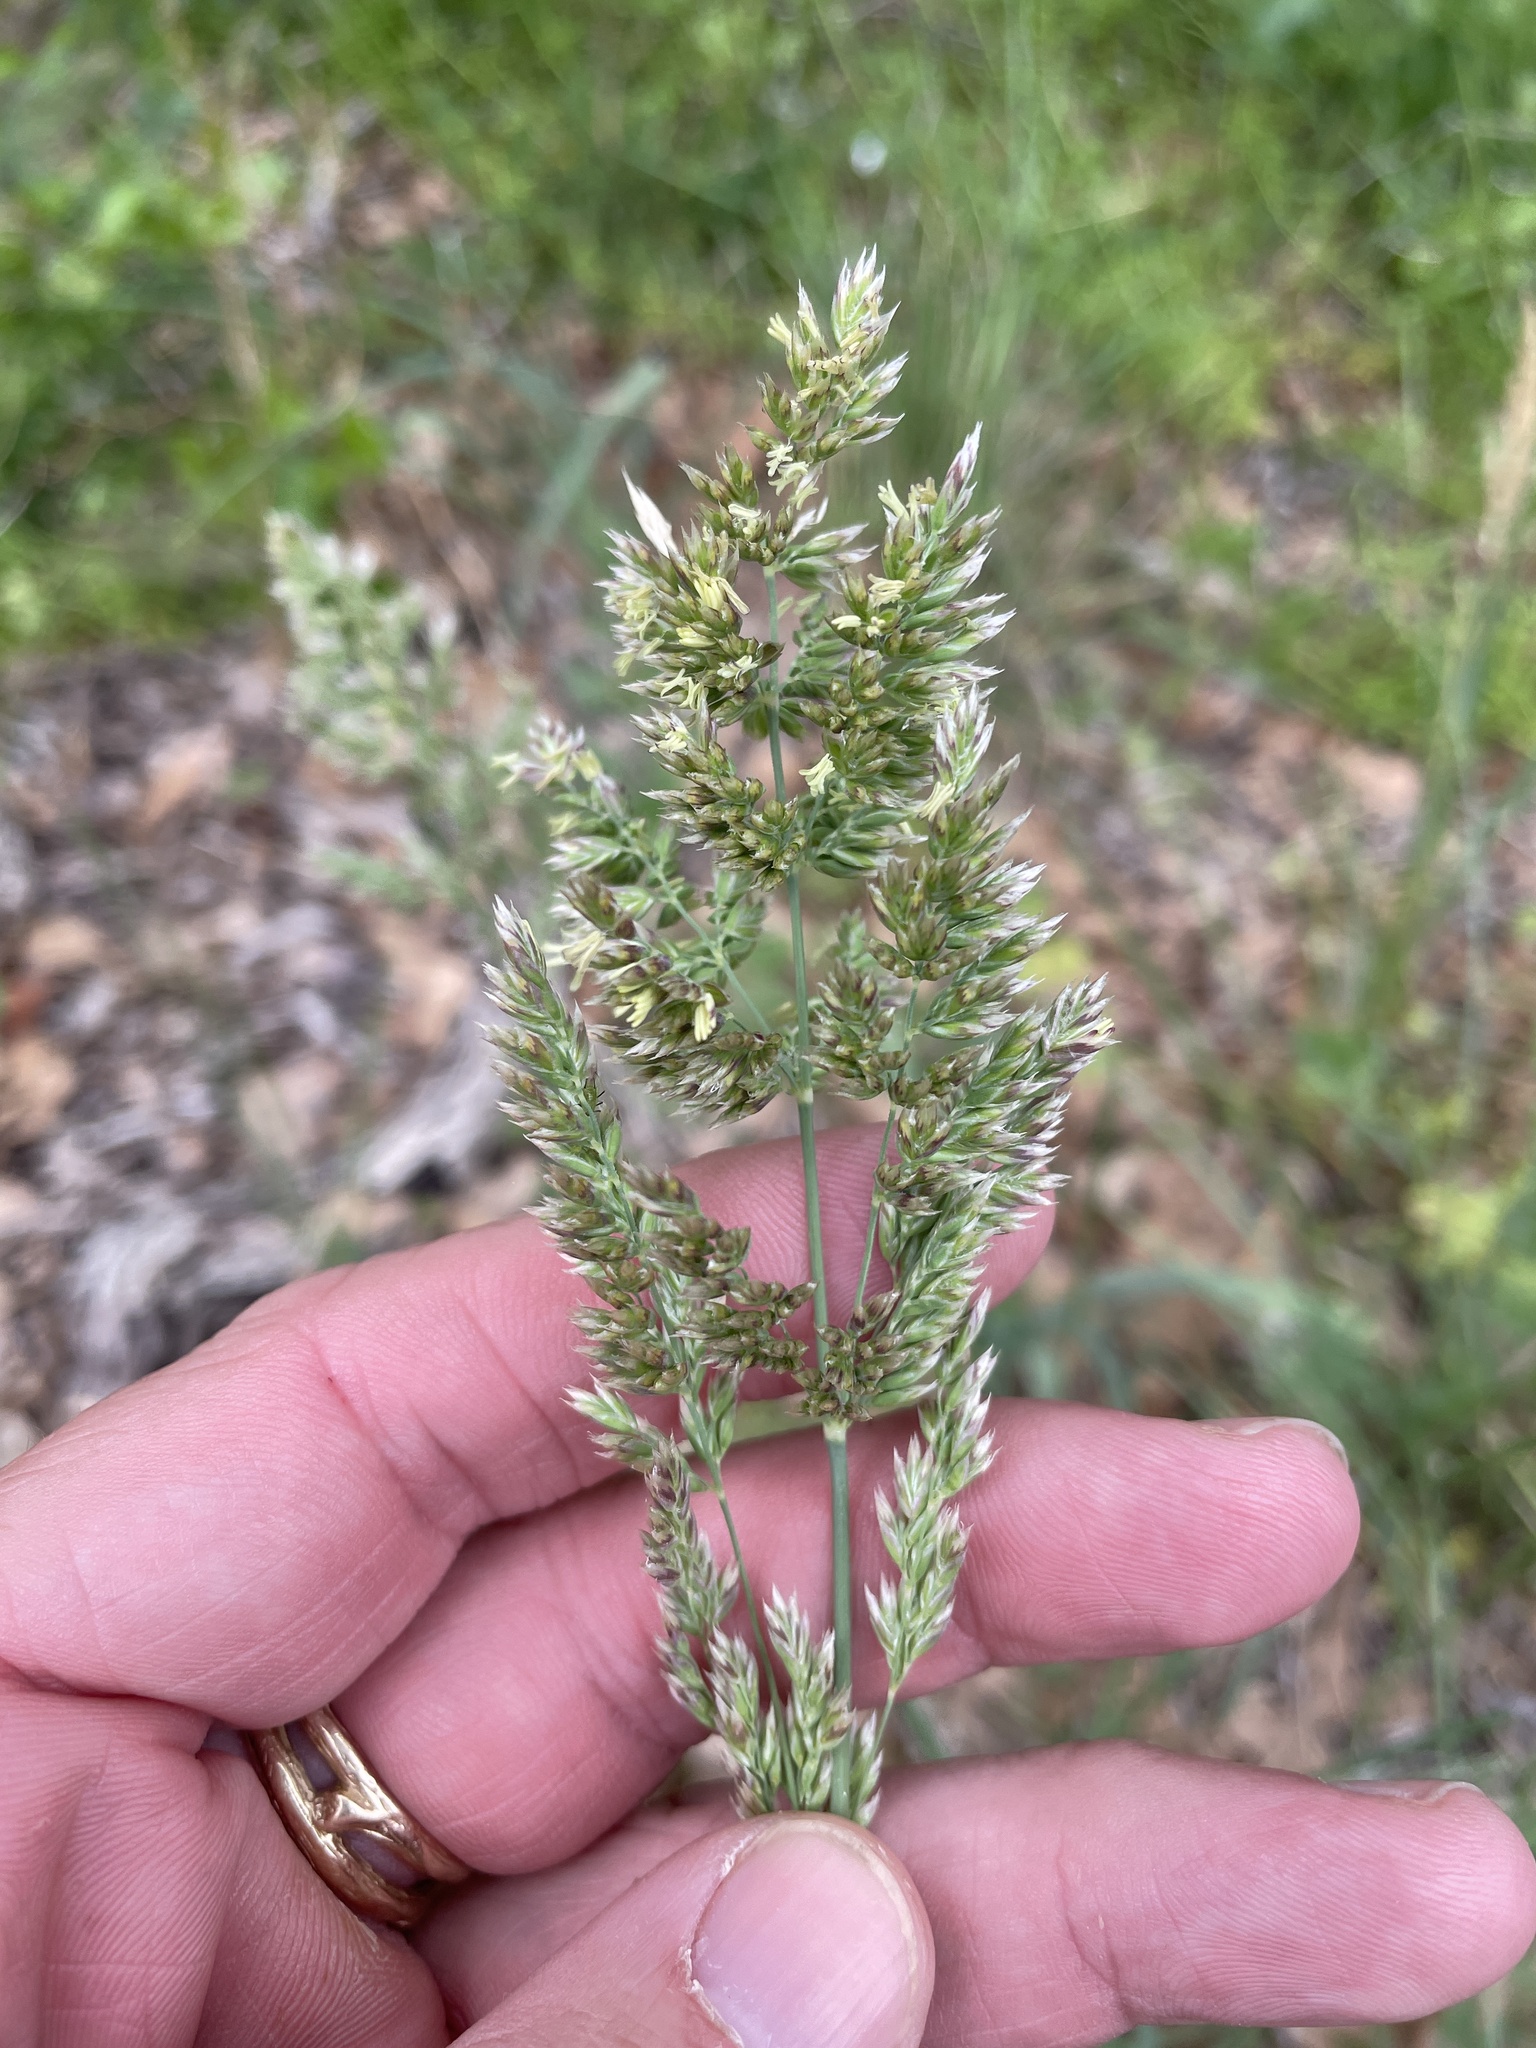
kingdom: Plantae
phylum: Tracheophyta
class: Liliopsida
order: Poales
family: Poaceae
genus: Poa
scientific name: Poa arachnifera
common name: Texas bluegrass
